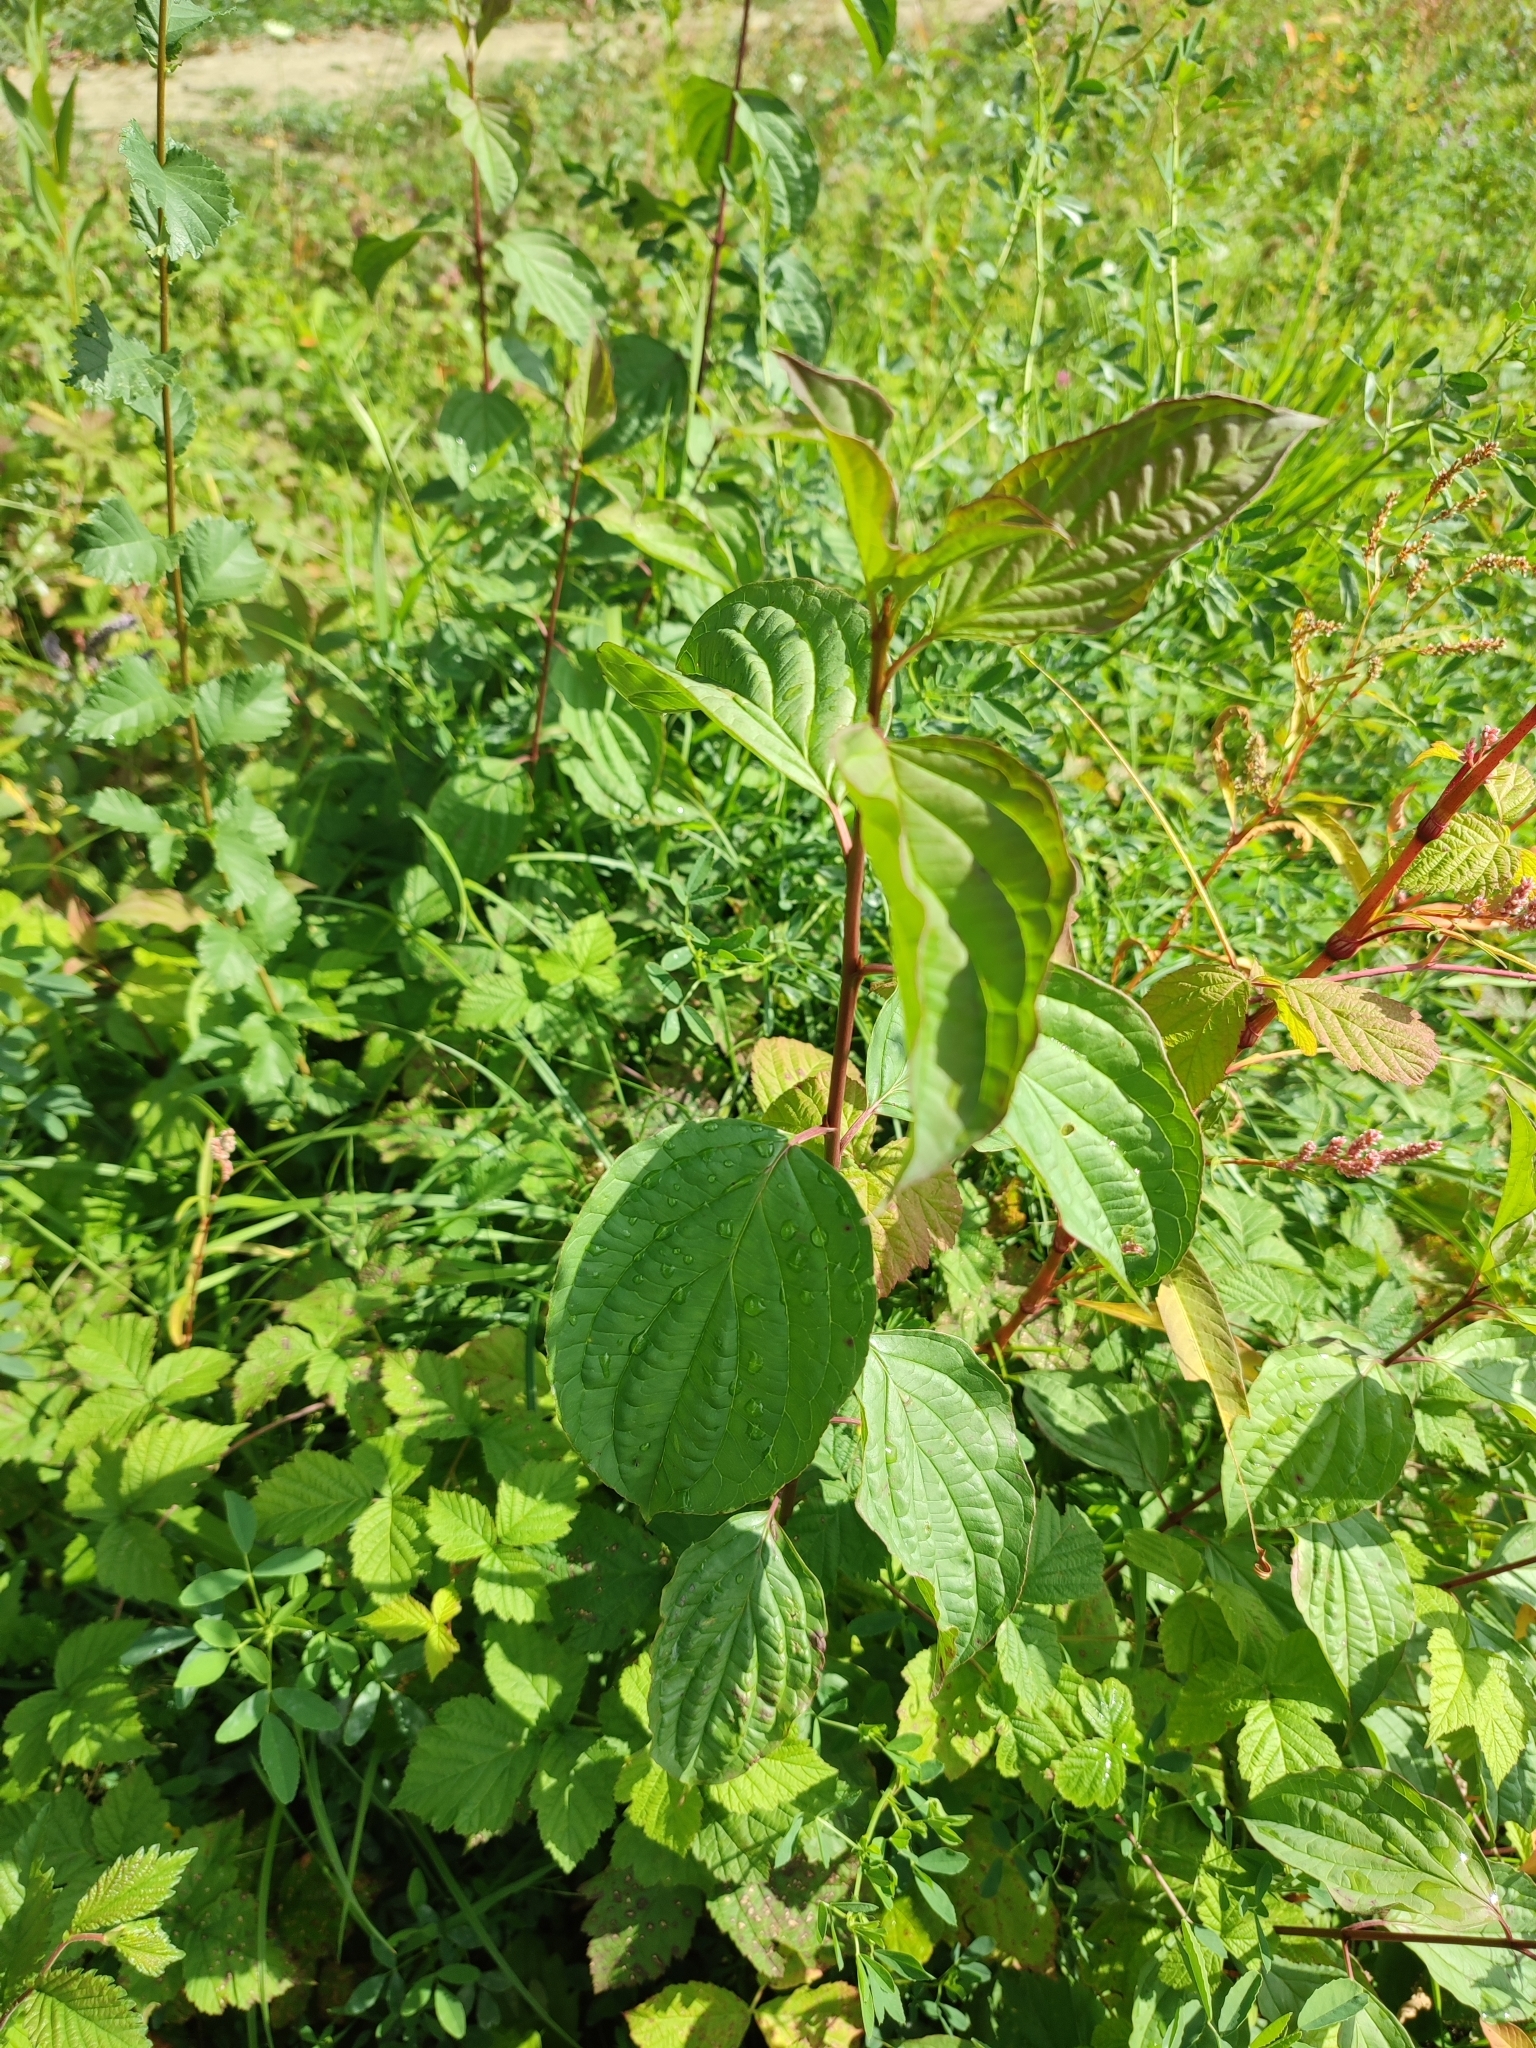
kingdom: Plantae
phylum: Tracheophyta
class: Magnoliopsida
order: Cornales
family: Cornaceae
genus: Cornus
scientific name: Cornus sanguinea
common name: Dogwood
